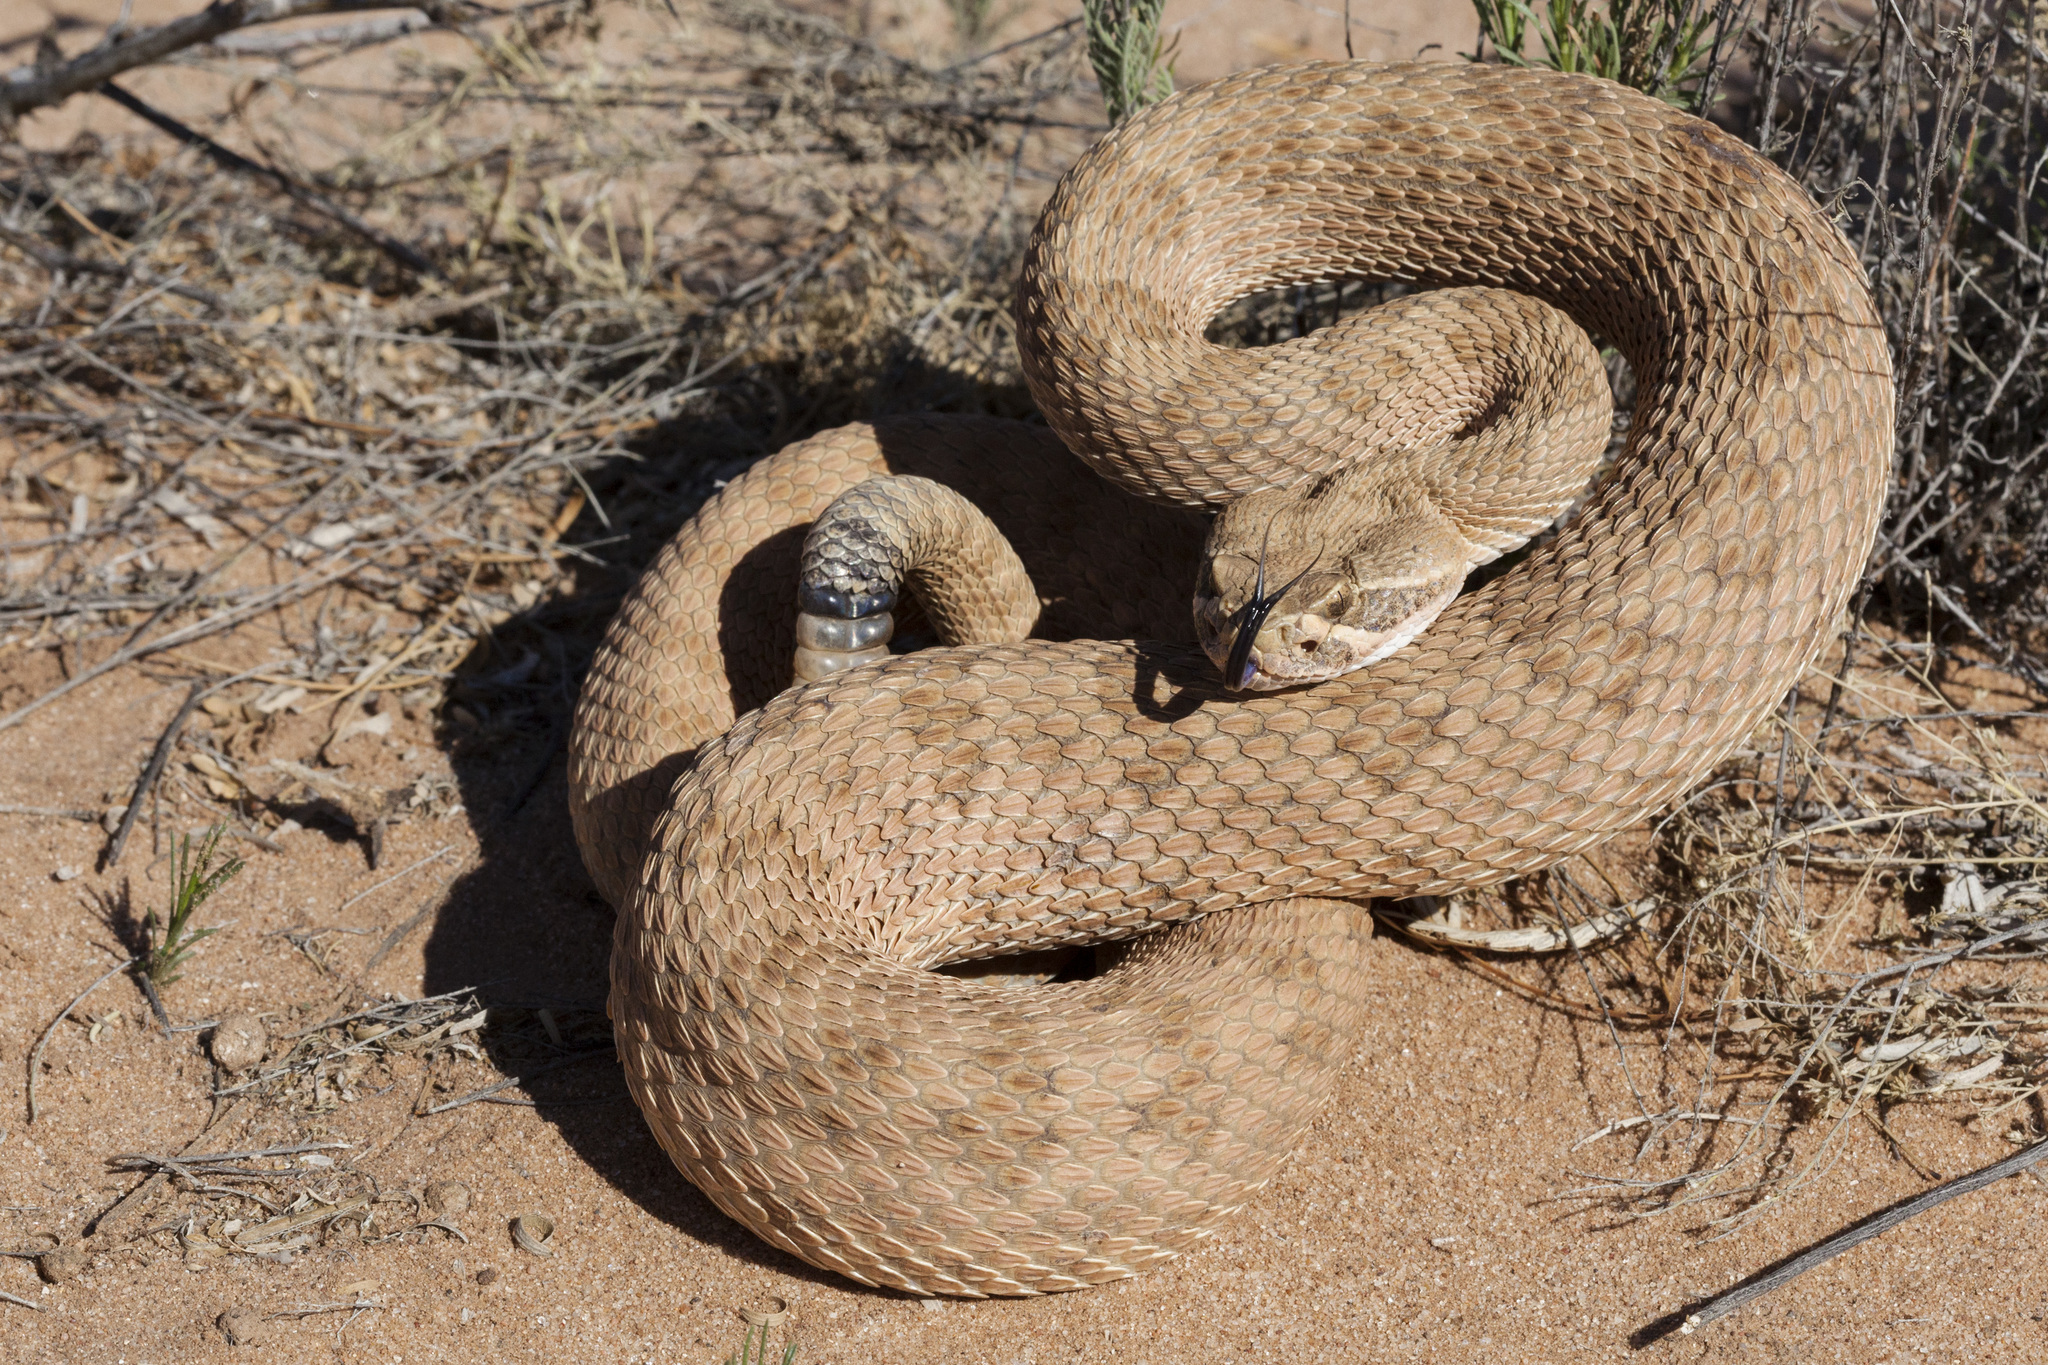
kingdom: Animalia
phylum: Chordata
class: Squamata
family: Viperidae
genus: Crotalus
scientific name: Crotalus viridis
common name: Prairie rattlesnake
